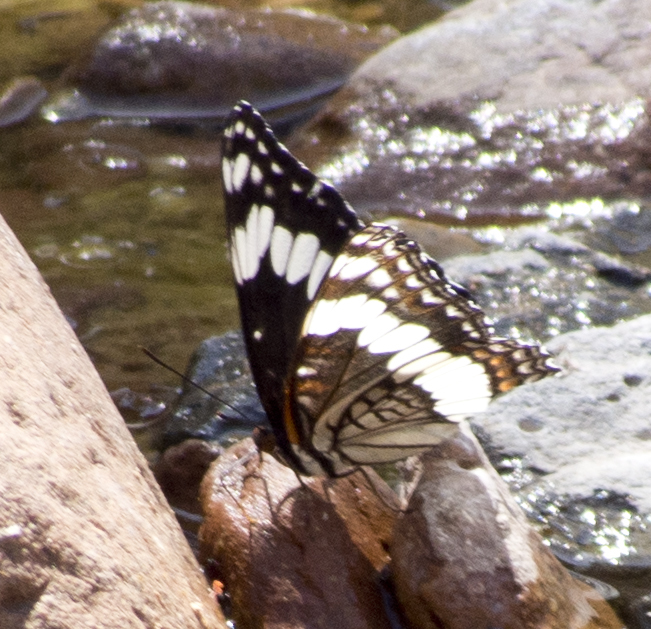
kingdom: Animalia
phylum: Arthropoda
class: Insecta
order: Lepidoptera
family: Nymphalidae
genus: Limenitis
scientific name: Limenitis weidemeyerii
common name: Weidemeyer's admiral
